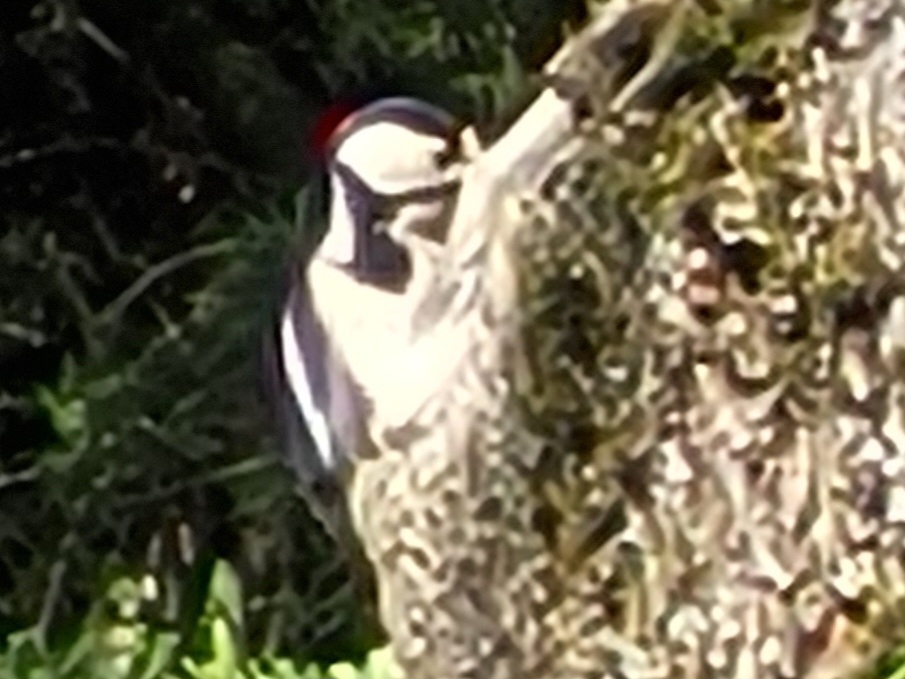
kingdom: Animalia
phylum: Chordata
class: Aves
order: Piciformes
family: Picidae
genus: Dendrocopos
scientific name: Dendrocopos major
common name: Great spotted woodpecker
